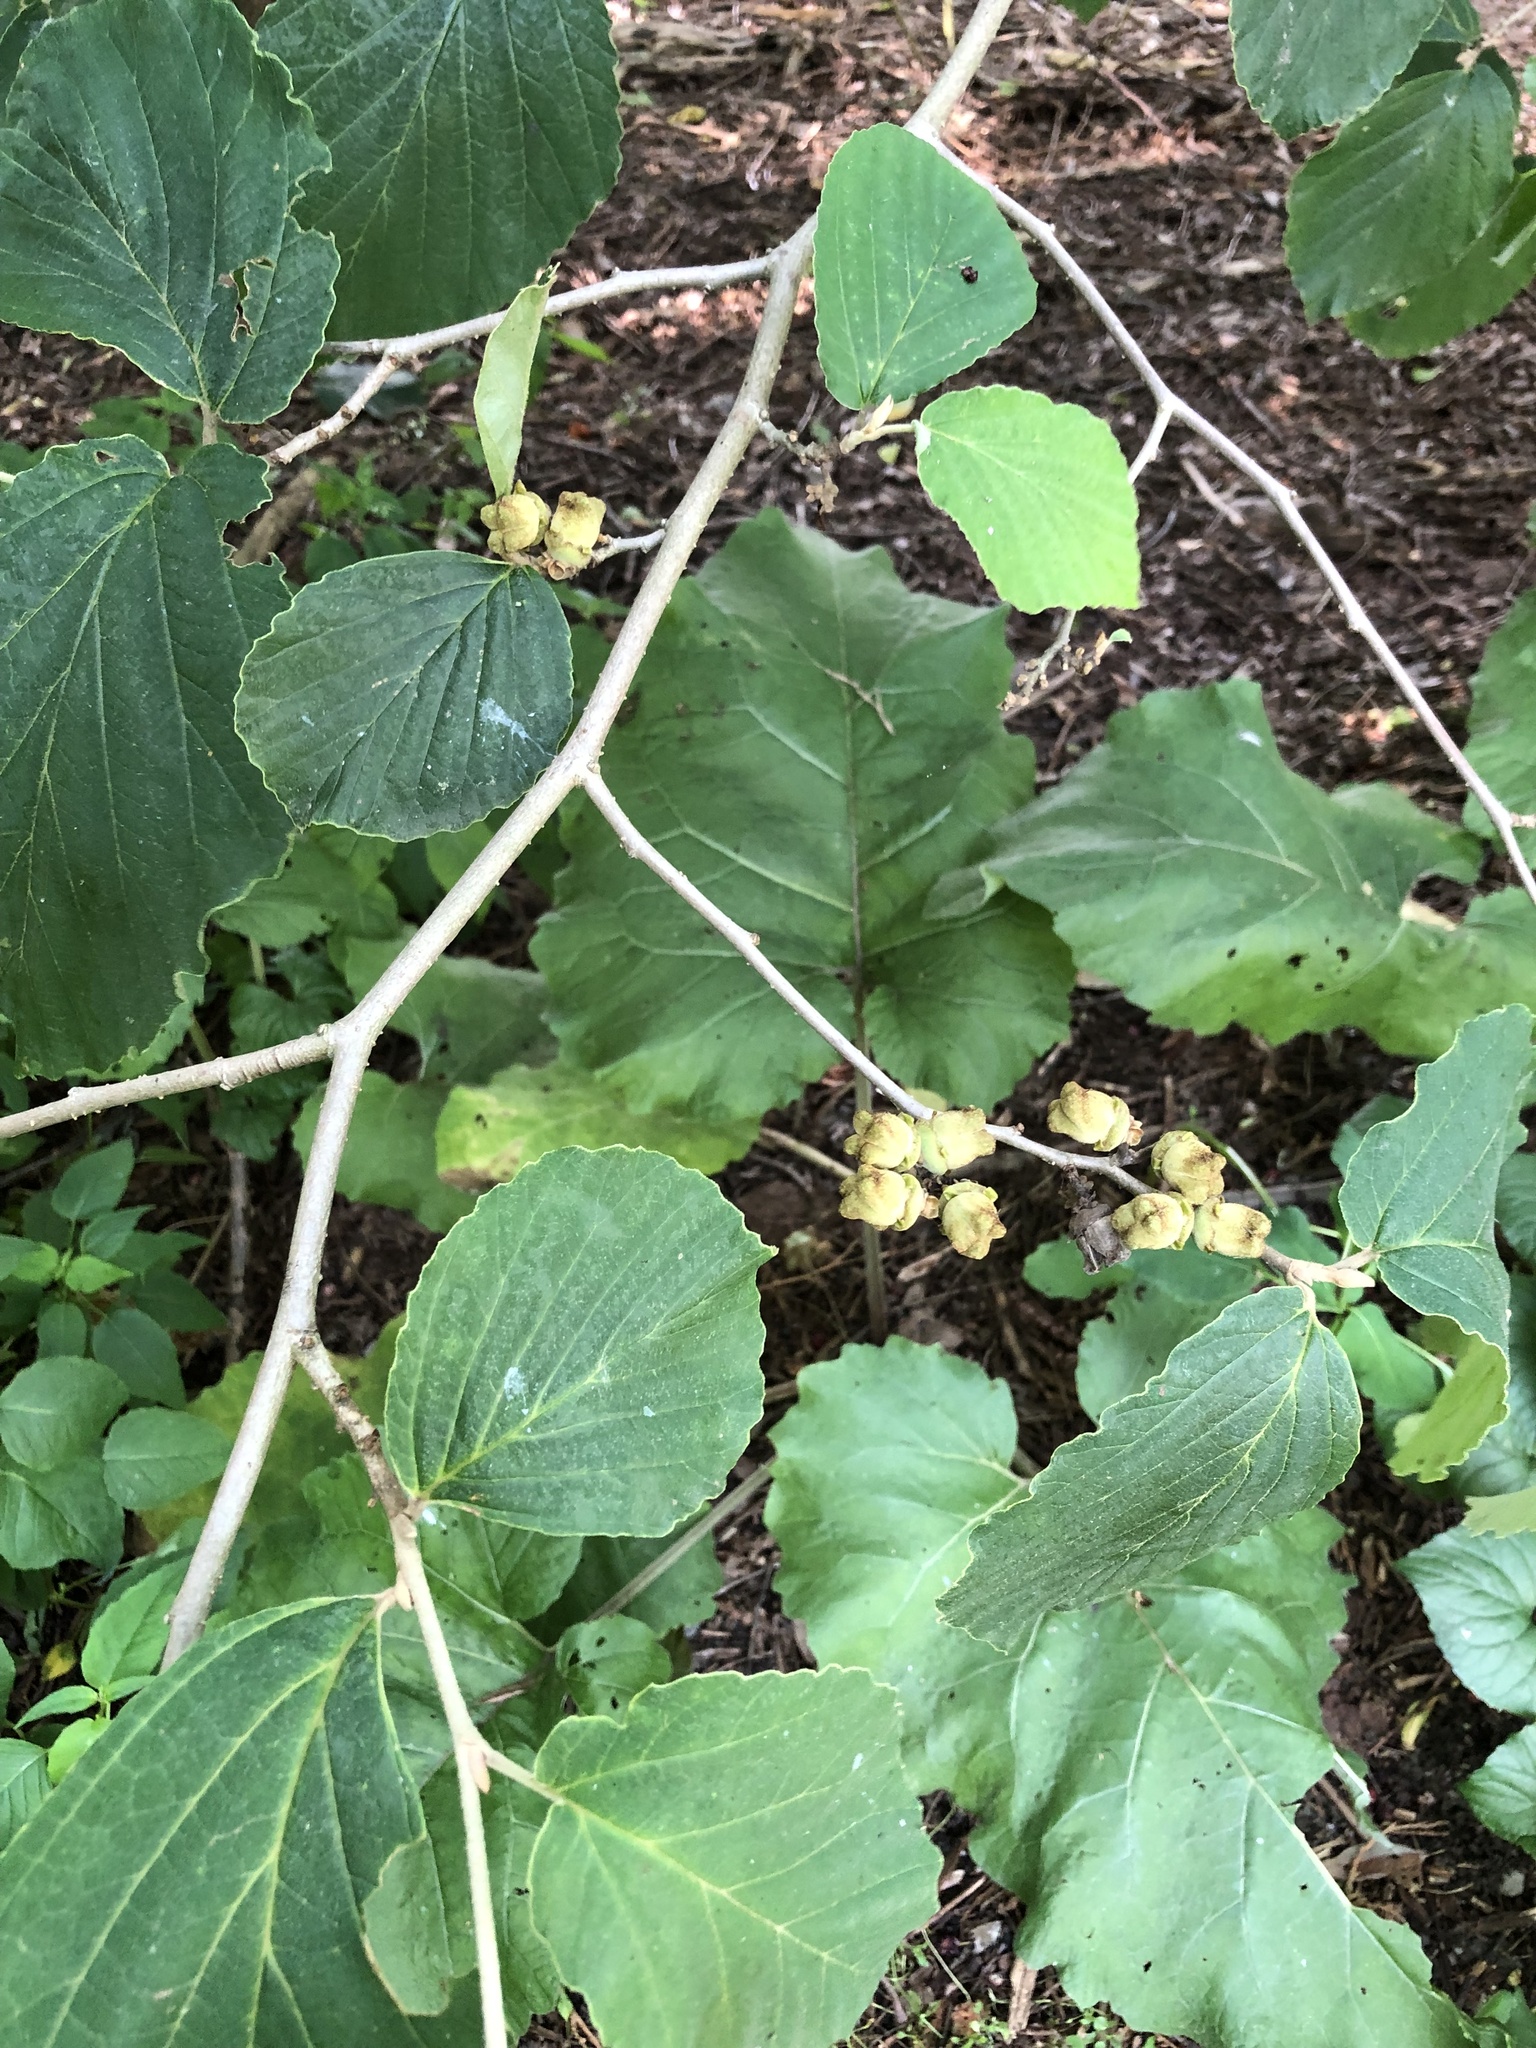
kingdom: Plantae
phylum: Tracheophyta
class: Magnoliopsida
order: Saxifragales
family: Hamamelidaceae
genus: Hamamelis
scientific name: Hamamelis virginiana
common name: Witch-hazel
